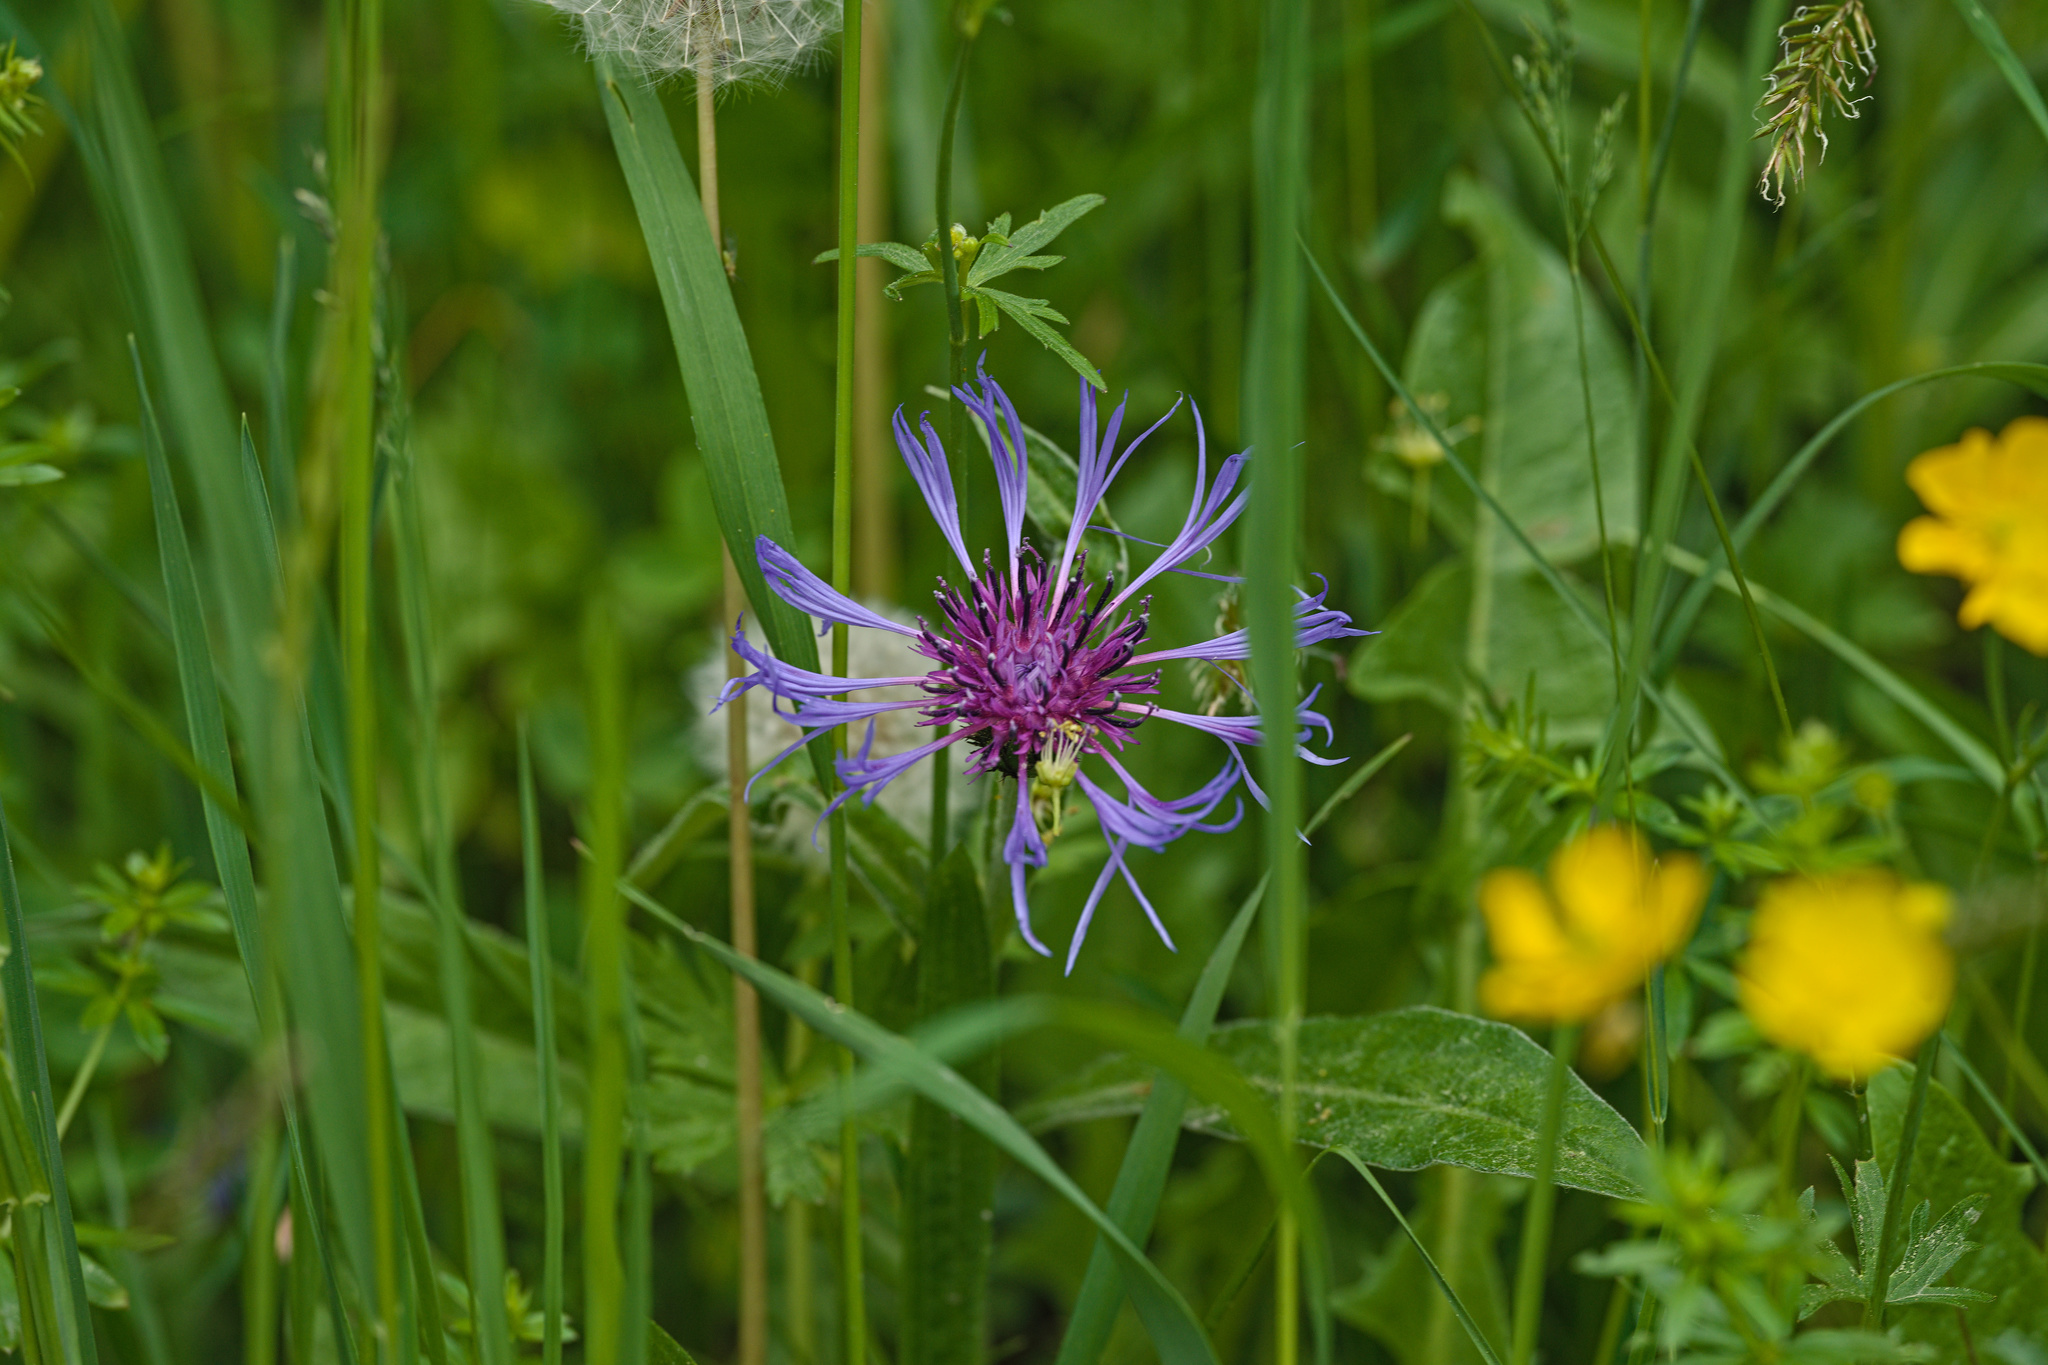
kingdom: Plantae
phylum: Tracheophyta
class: Magnoliopsida
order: Asterales
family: Asteraceae
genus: Centaurea
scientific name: Centaurea montana
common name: Perennial cornflower
